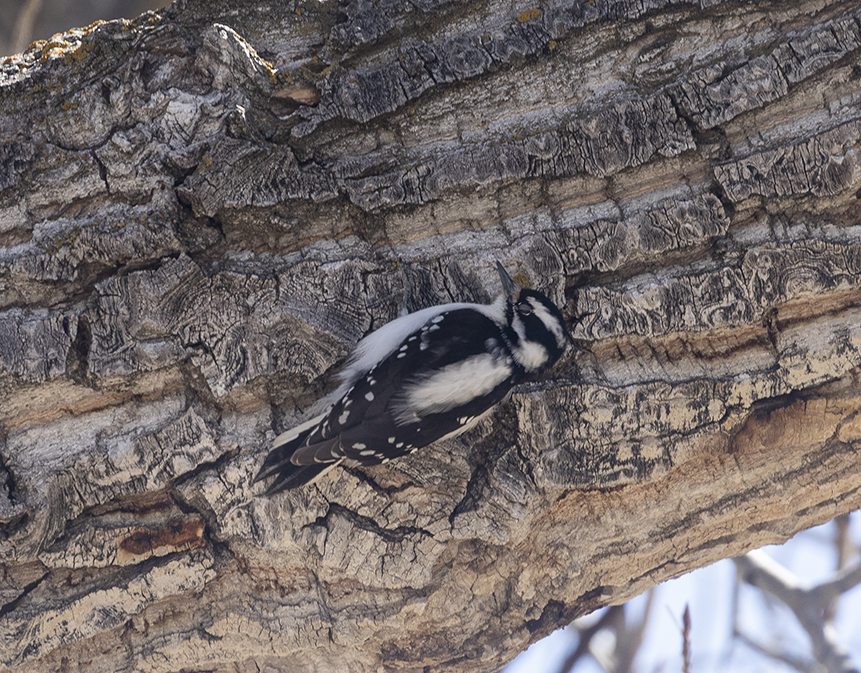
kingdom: Animalia
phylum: Chordata
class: Aves
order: Piciformes
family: Picidae
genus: Dryobates
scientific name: Dryobates pubescens
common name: Downy woodpecker
